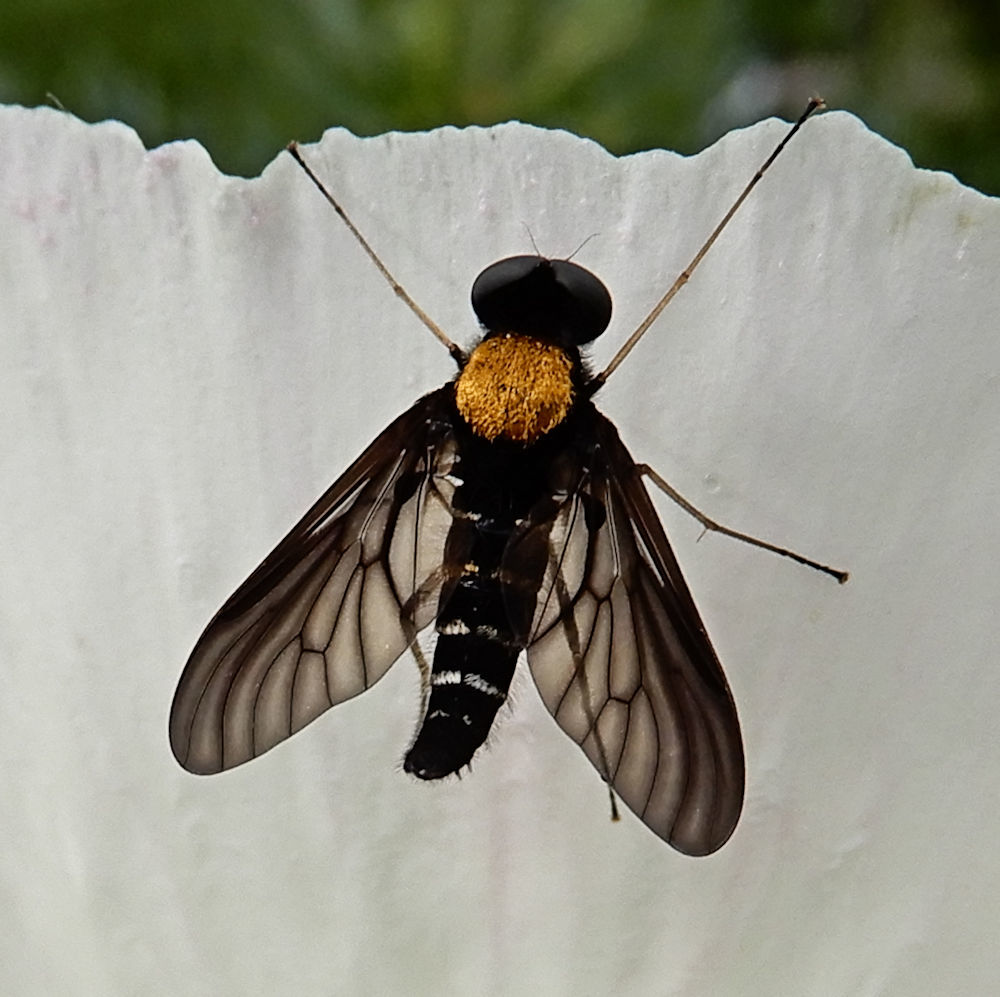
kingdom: Animalia
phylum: Arthropoda
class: Insecta
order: Diptera
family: Rhagionidae
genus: Chrysopilus
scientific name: Chrysopilus thoracicus
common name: Golden-backed snipe fly
